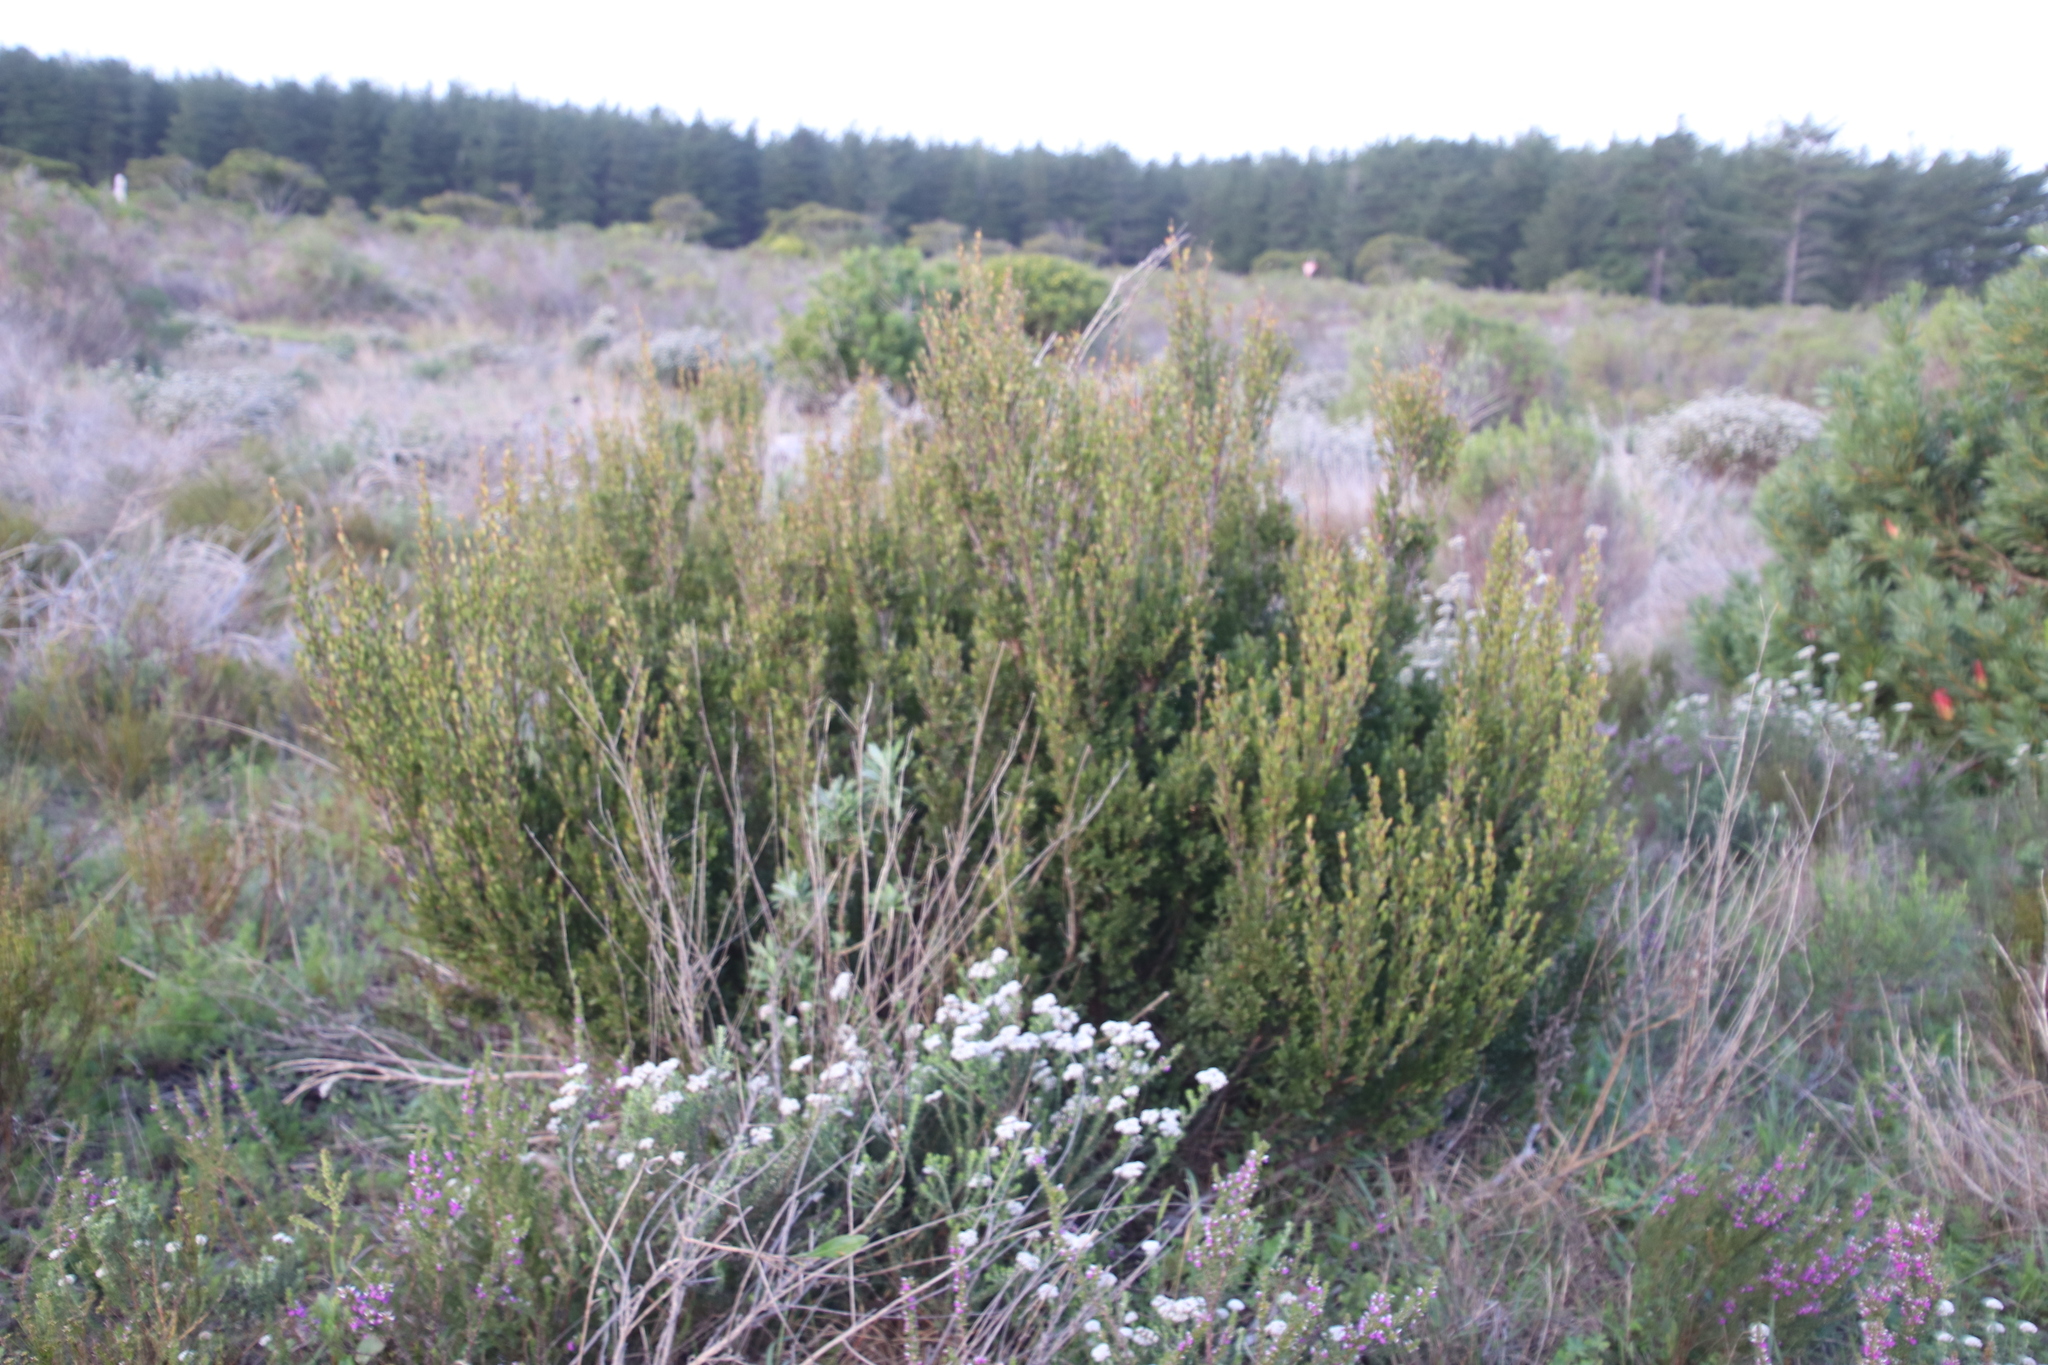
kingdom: Plantae
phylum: Tracheophyta
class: Magnoliopsida
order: Ericales
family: Ebenaceae
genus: Diospyros
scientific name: Diospyros glabra
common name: Fynbos star apple
